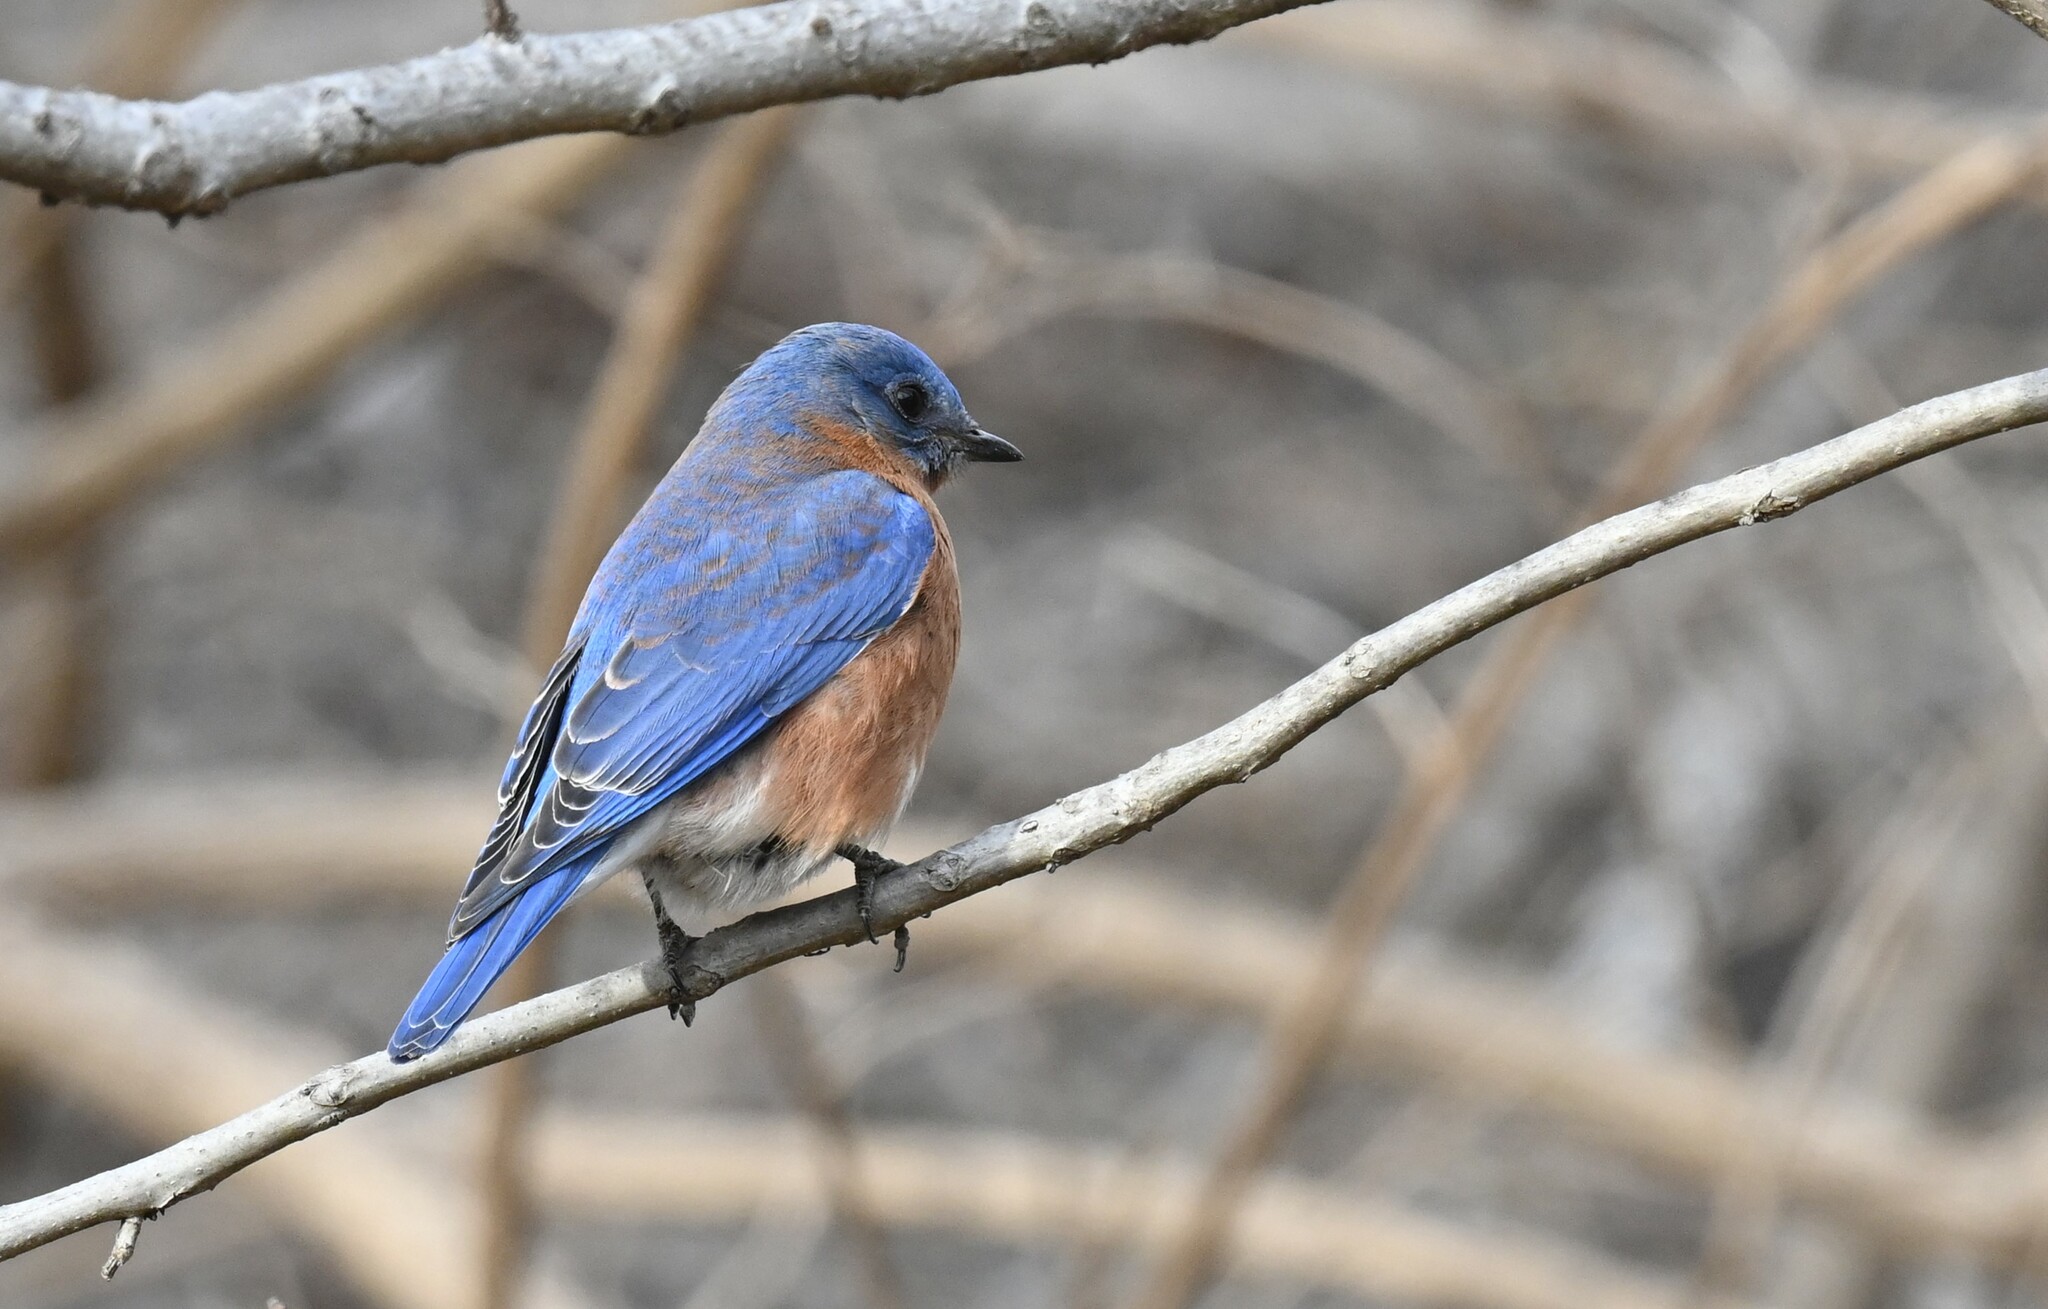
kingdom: Animalia
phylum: Chordata
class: Aves
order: Passeriformes
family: Turdidae
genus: Sialia
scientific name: Sialia sialis
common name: Eastern bluebird
